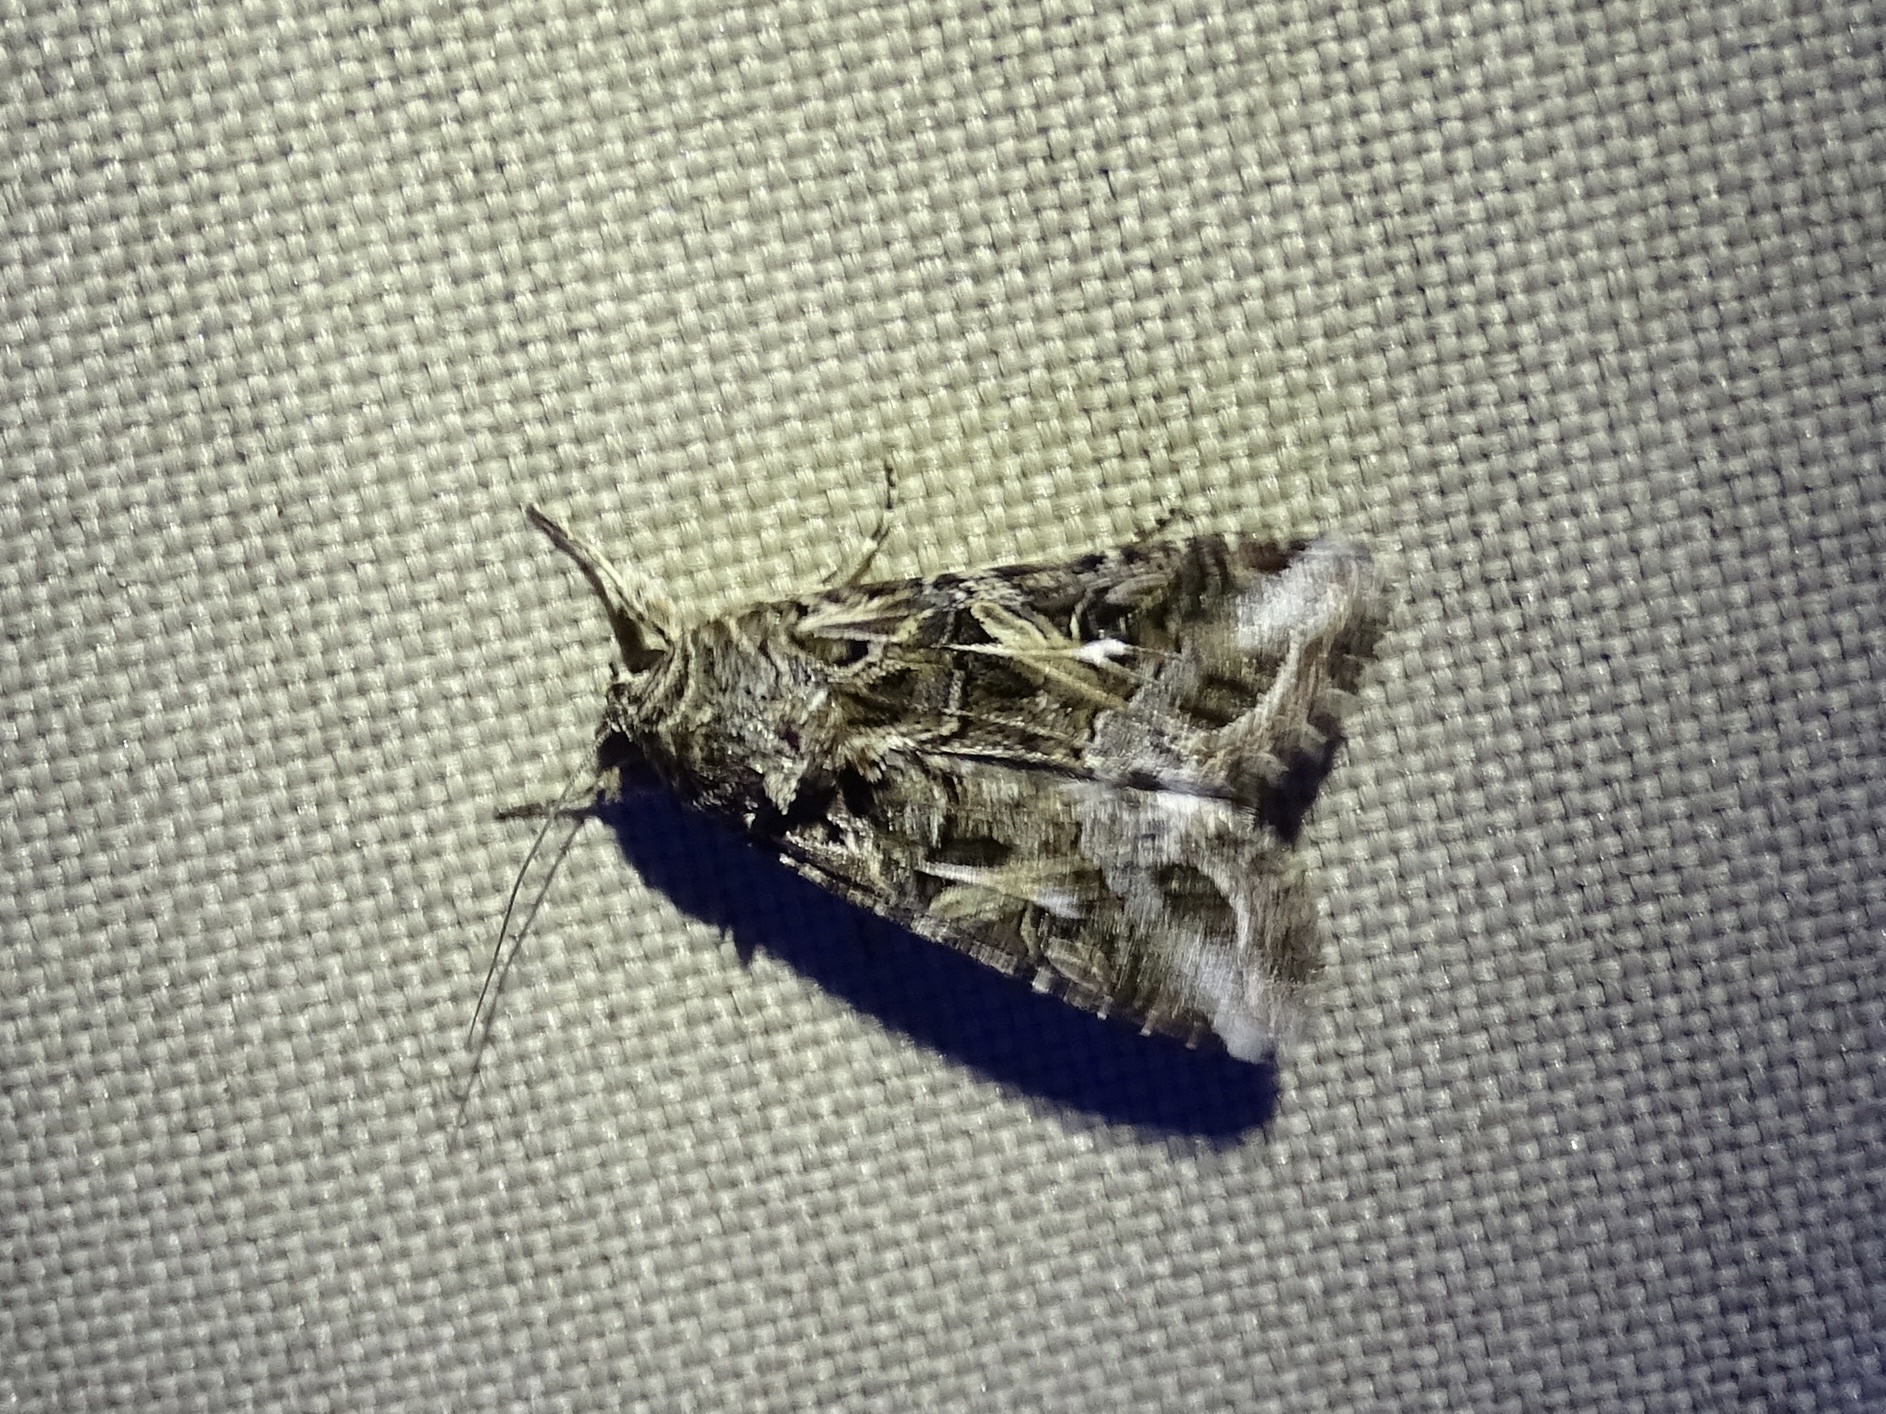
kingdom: Animalia
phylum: Arthropoda
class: Insecta
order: Lepidoptera
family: Noctuidae
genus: Spodoptera
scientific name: Spodoptera ornithogalli
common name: Yellow-striped armyworm
